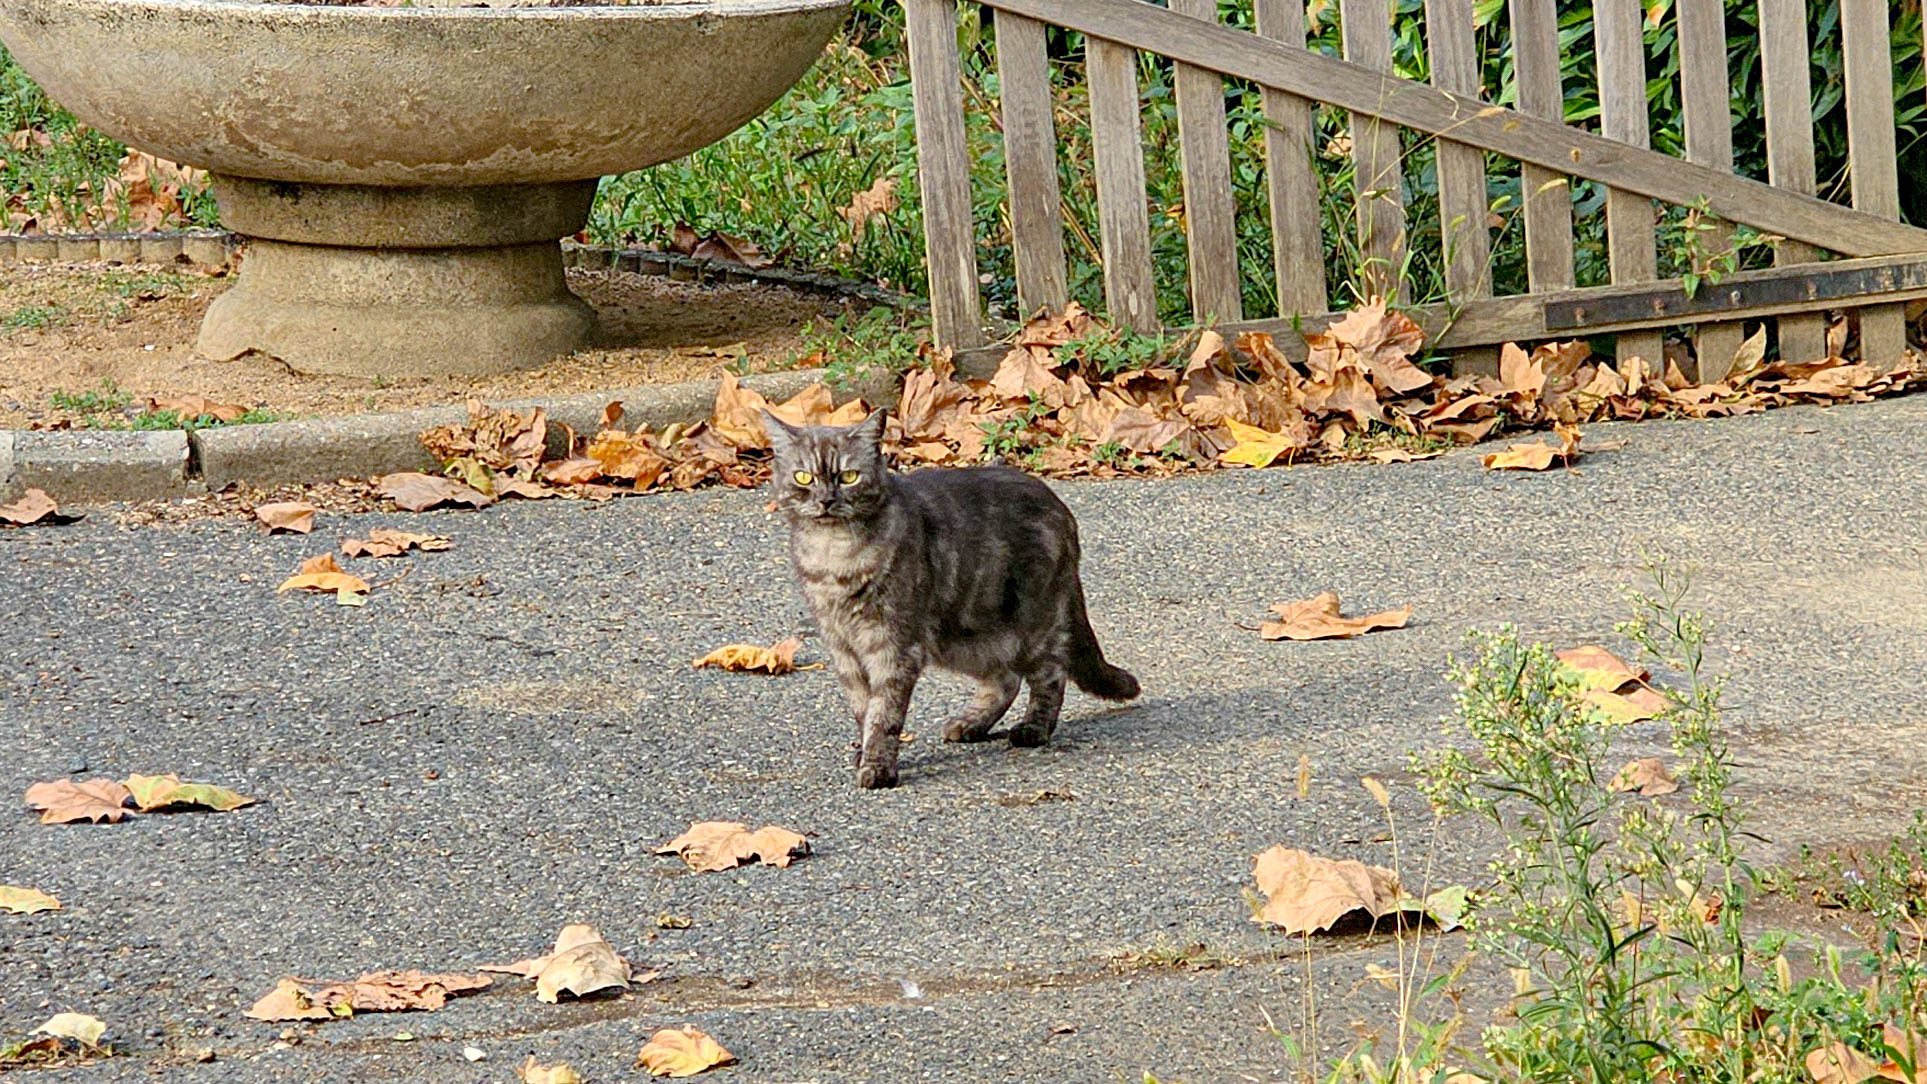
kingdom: Animalia
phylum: Chordata
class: Mammalia
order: Carnivora
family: Felidae
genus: Felis
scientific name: Felis catus
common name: Domestic cat
